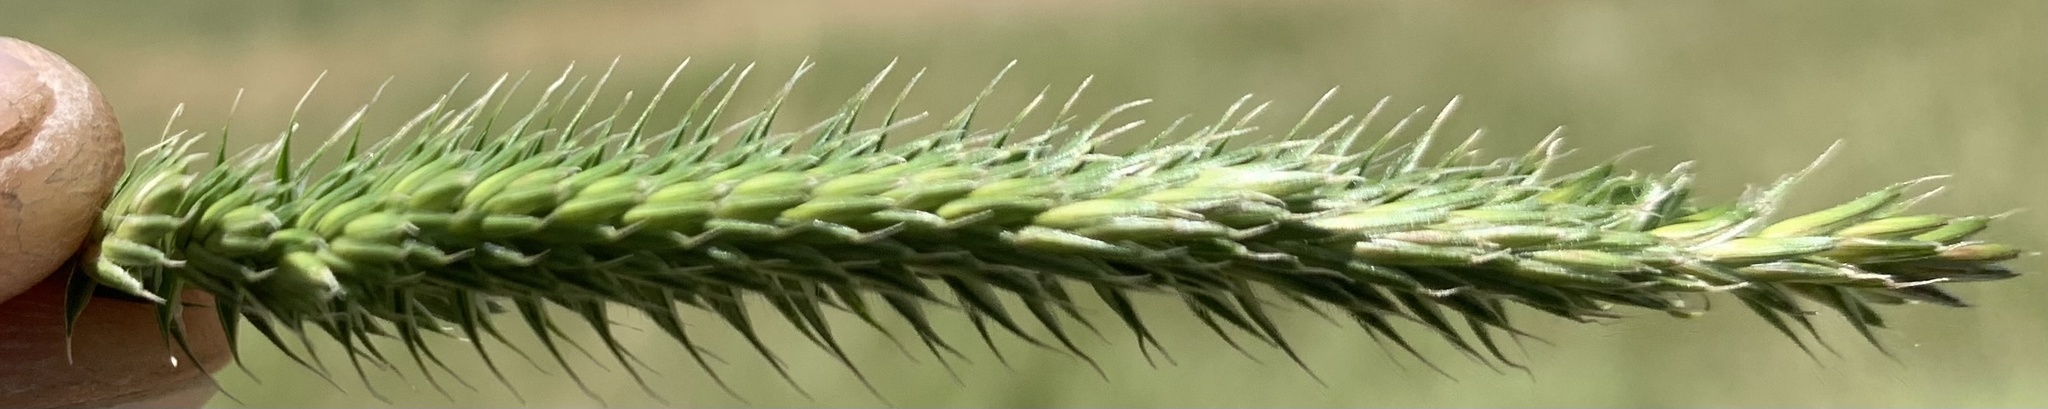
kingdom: Plantae
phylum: Tracheophyta
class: Liliopsida
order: Poales
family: Poaceae
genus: Agropyron
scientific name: Agropyron cristatum
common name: Crested wheatgrass
